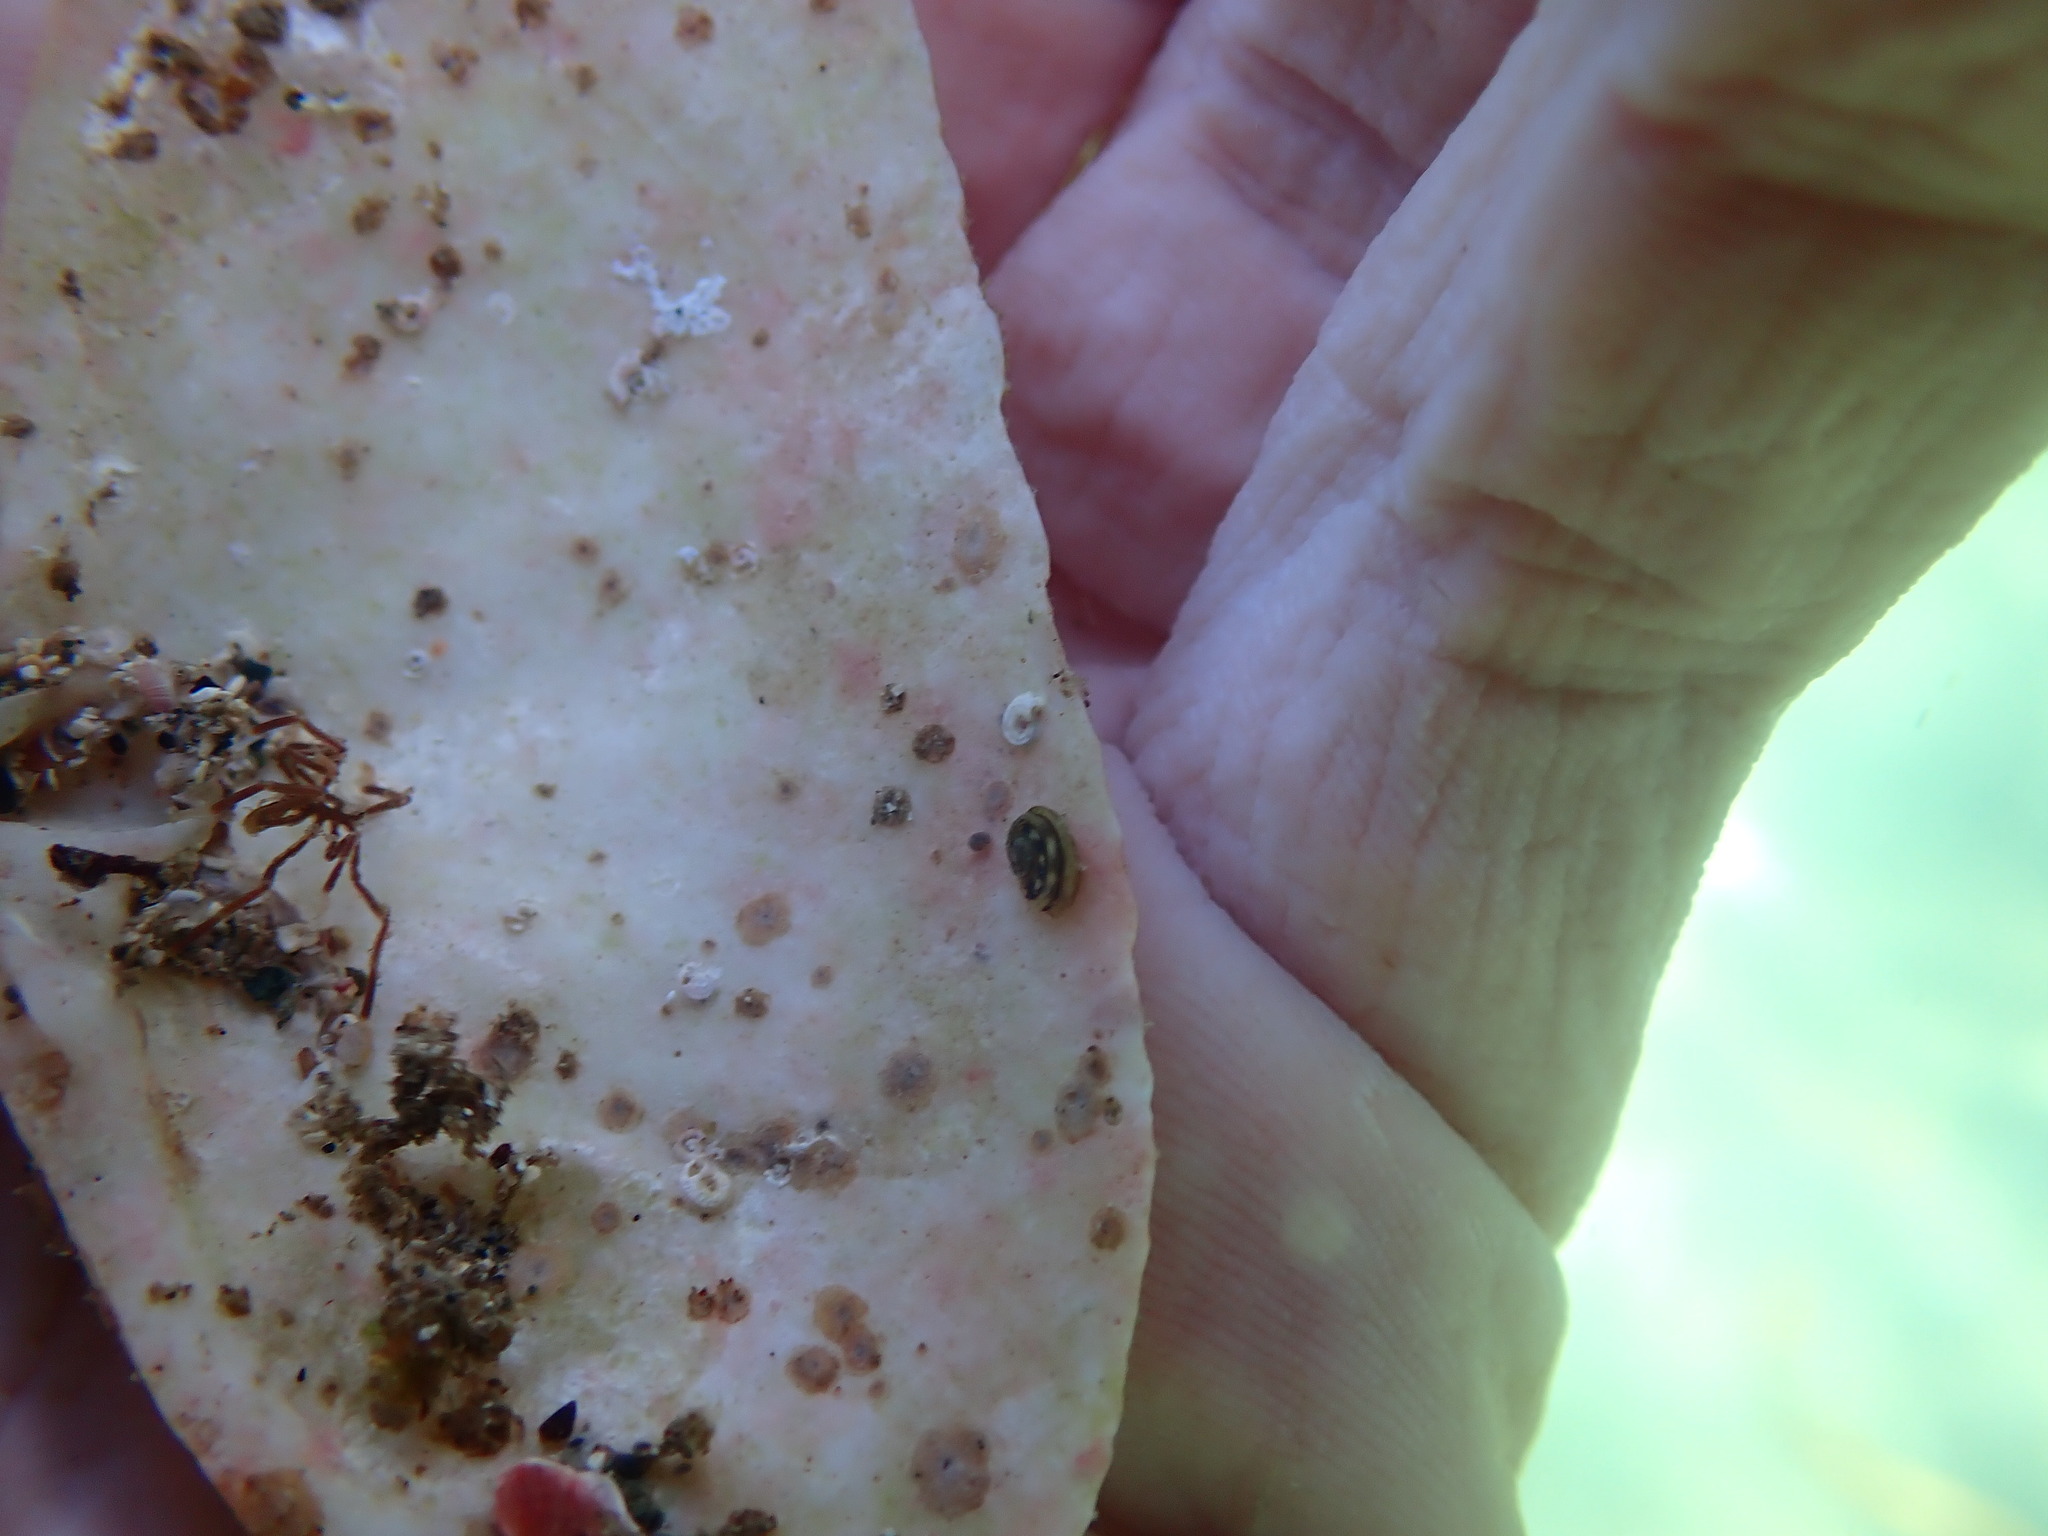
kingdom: Animalia
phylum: Mollusca
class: Gastropoda
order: Littorinimorpha
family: Littorinidae
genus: Risellopsis
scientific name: Risellopsis varia
